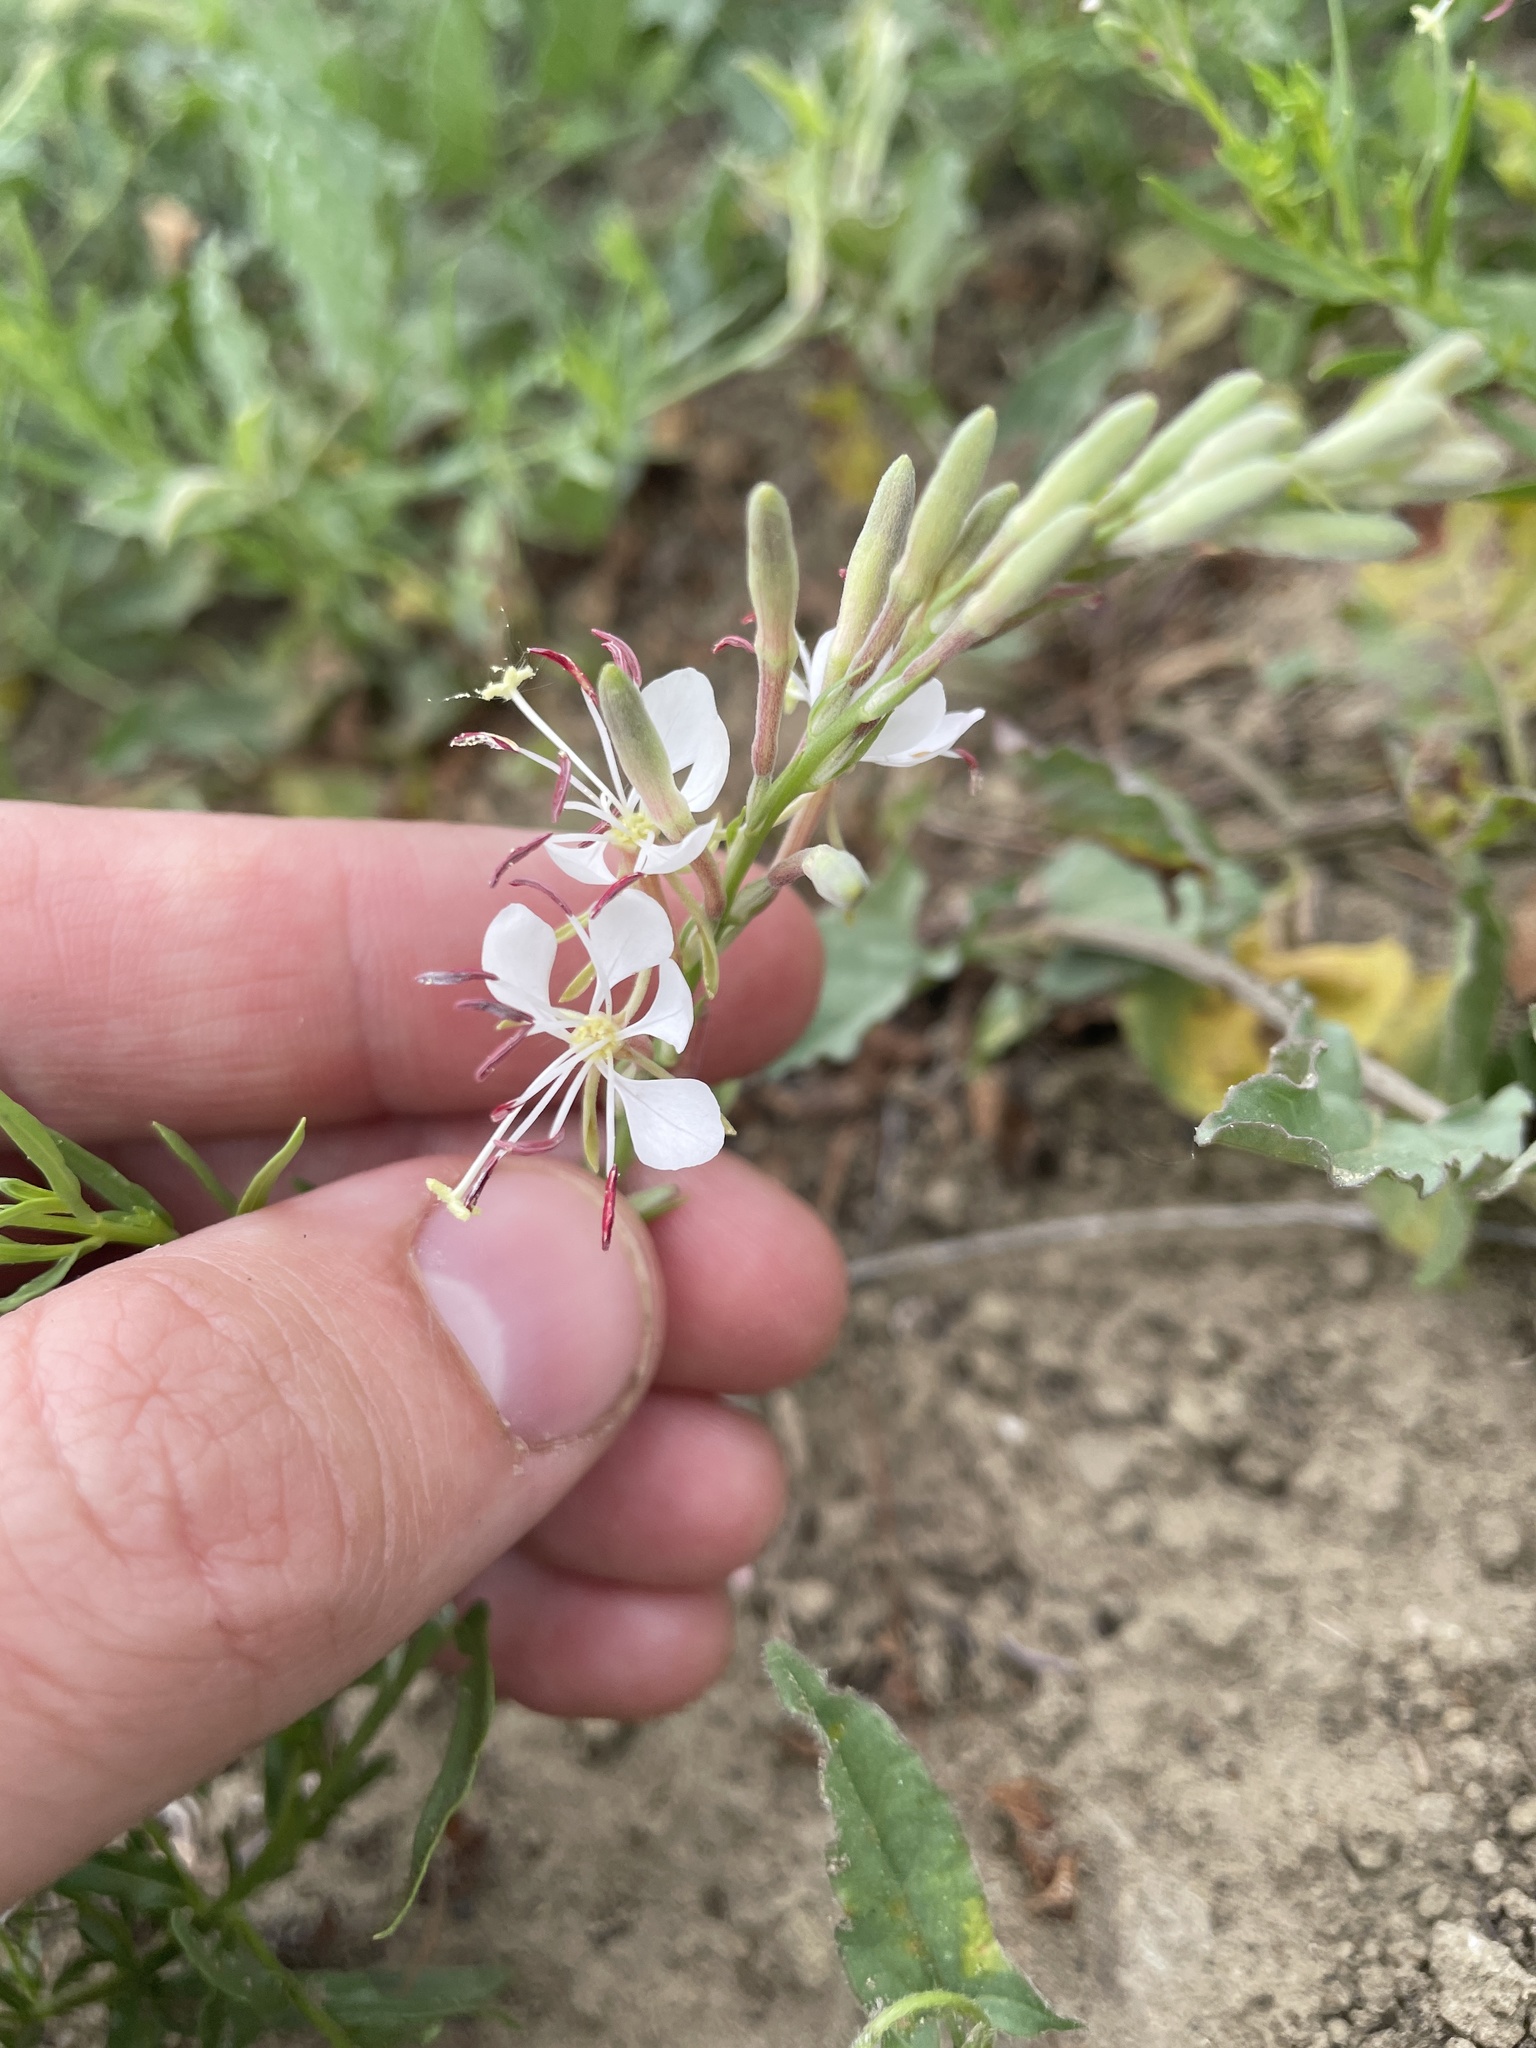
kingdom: Plantae
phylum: Tracheophyta
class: Magnoliopsida
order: Myrtales
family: Onagraceae
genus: Oenothera
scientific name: Oenothera suffrutescens
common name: Scarlet beeblossom
